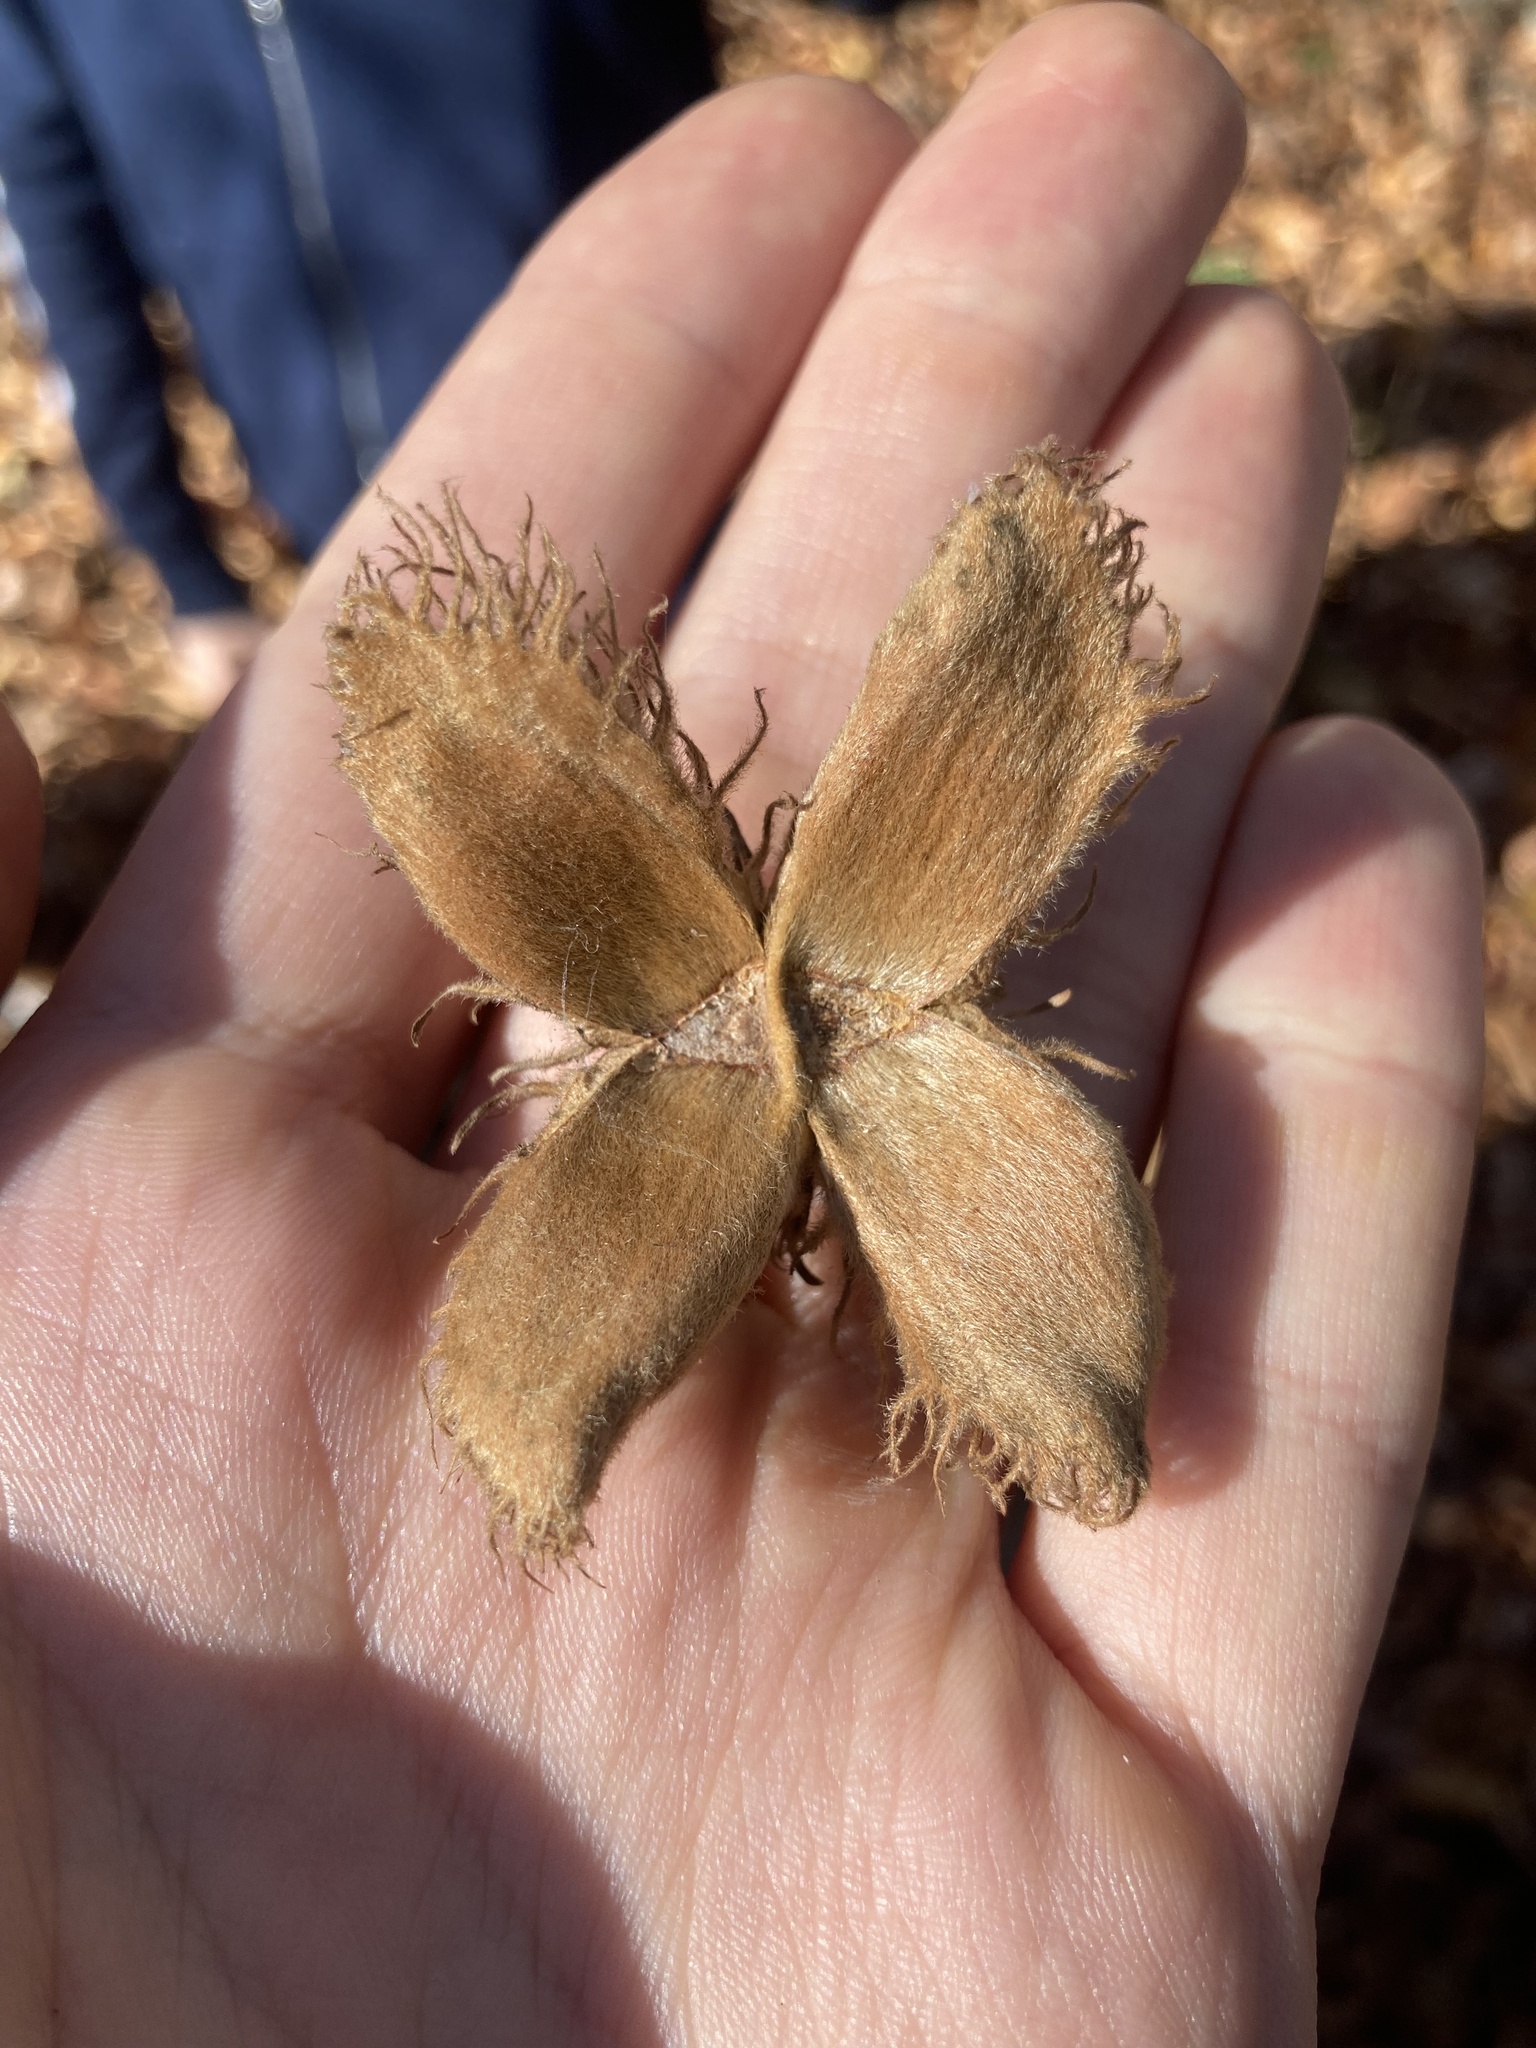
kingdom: Plantae
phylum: Tracheophyta
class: Magnoliopsida
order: Fagales
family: Fagaceae
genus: Fagus
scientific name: Fagus orientalis
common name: Oriental beech
